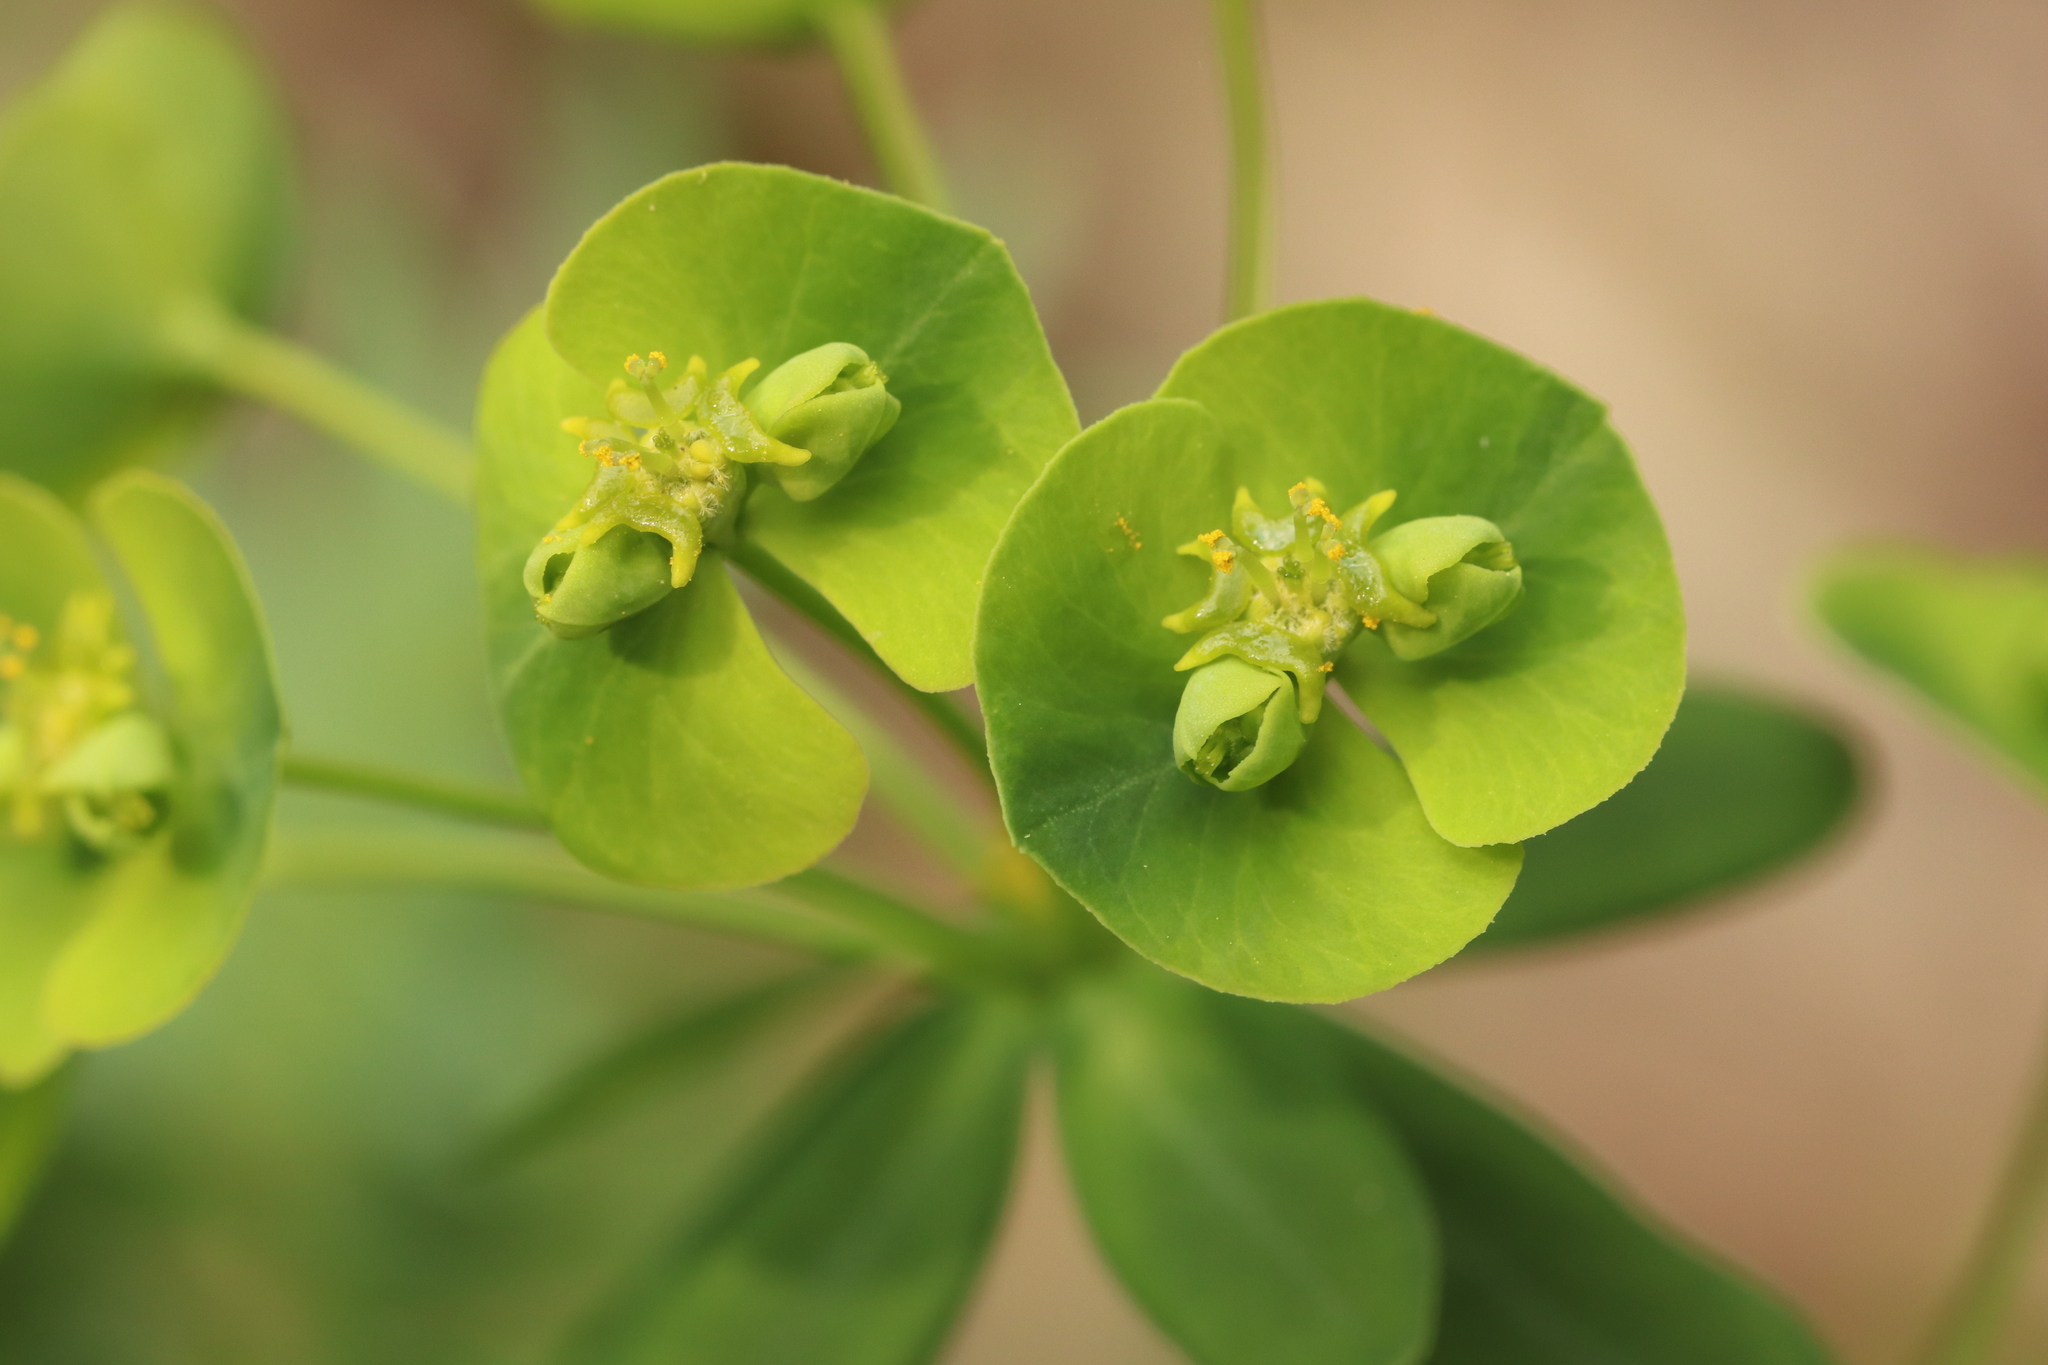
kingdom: Plantae
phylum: Tracheophyta
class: Magnoliopsida
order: Malpighiales
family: Euphorbiaceae
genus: Euphorbia
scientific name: Euphorbia virgata
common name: Leafy spurge
